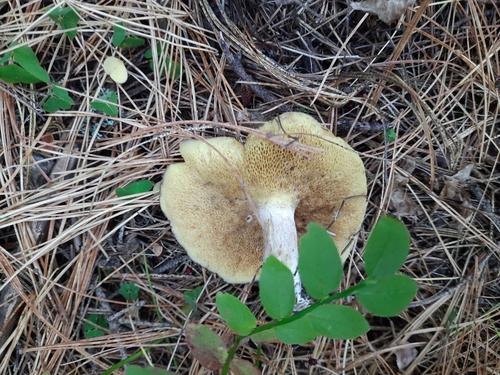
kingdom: Fungi
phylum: Basidiomycota
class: Agaricomycetes
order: Boletales
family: Suillaceae
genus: Suillus
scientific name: Suillus placidus
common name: Slippery white bolete
